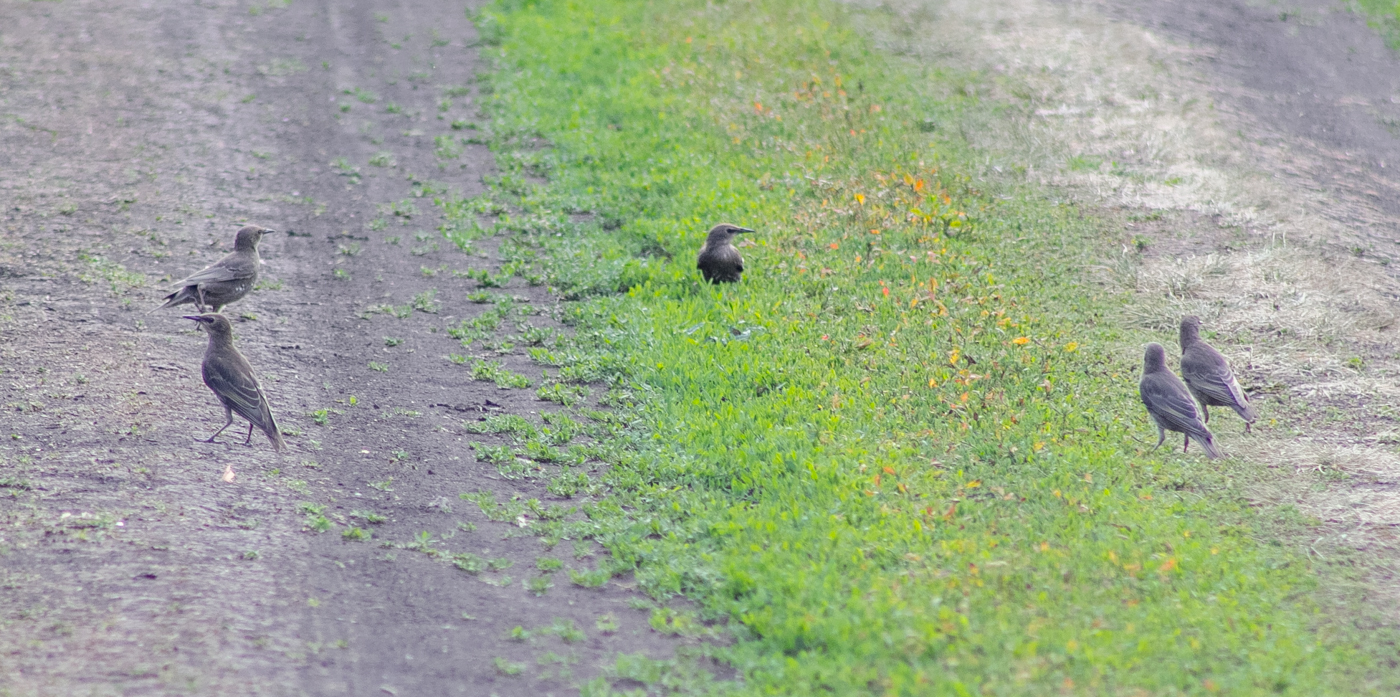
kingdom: Animalia
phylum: Chordata
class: Aves
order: Passeriformes
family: Sturnidae
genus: Sturnus
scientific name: Sturnus vulgaris
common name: Common starling
